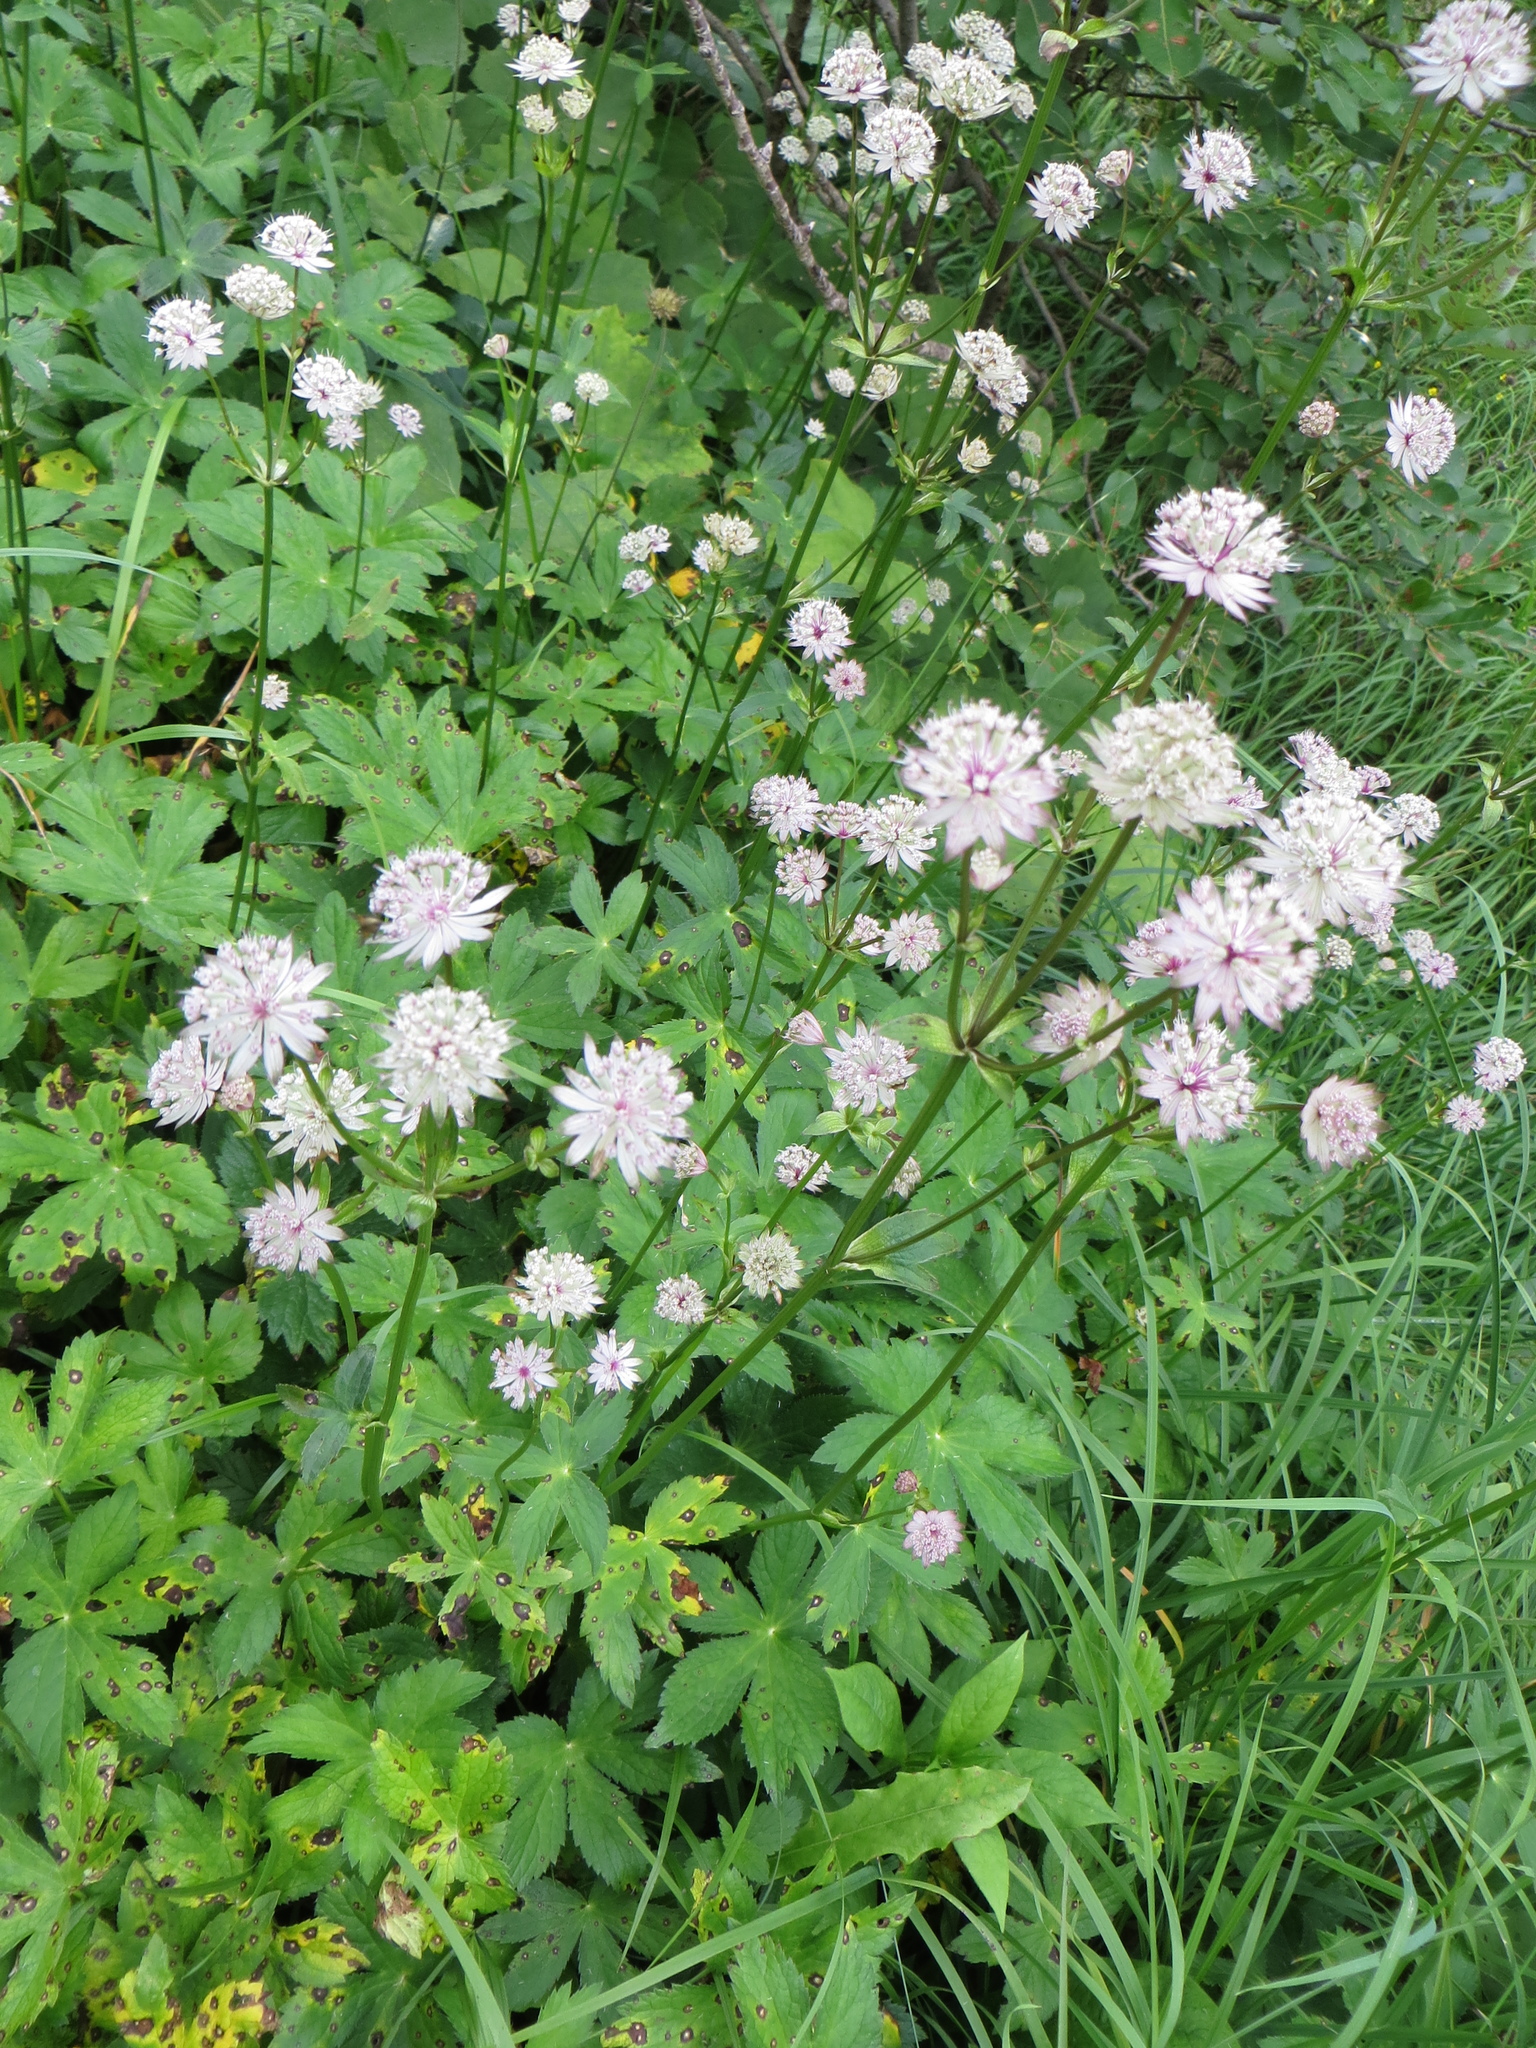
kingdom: Plantae
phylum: Tracheophyta
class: Magnoliopsida
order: Apiales
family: Apiaceae
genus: Astrantia
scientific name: Astrantia major
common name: Greater masterwort
